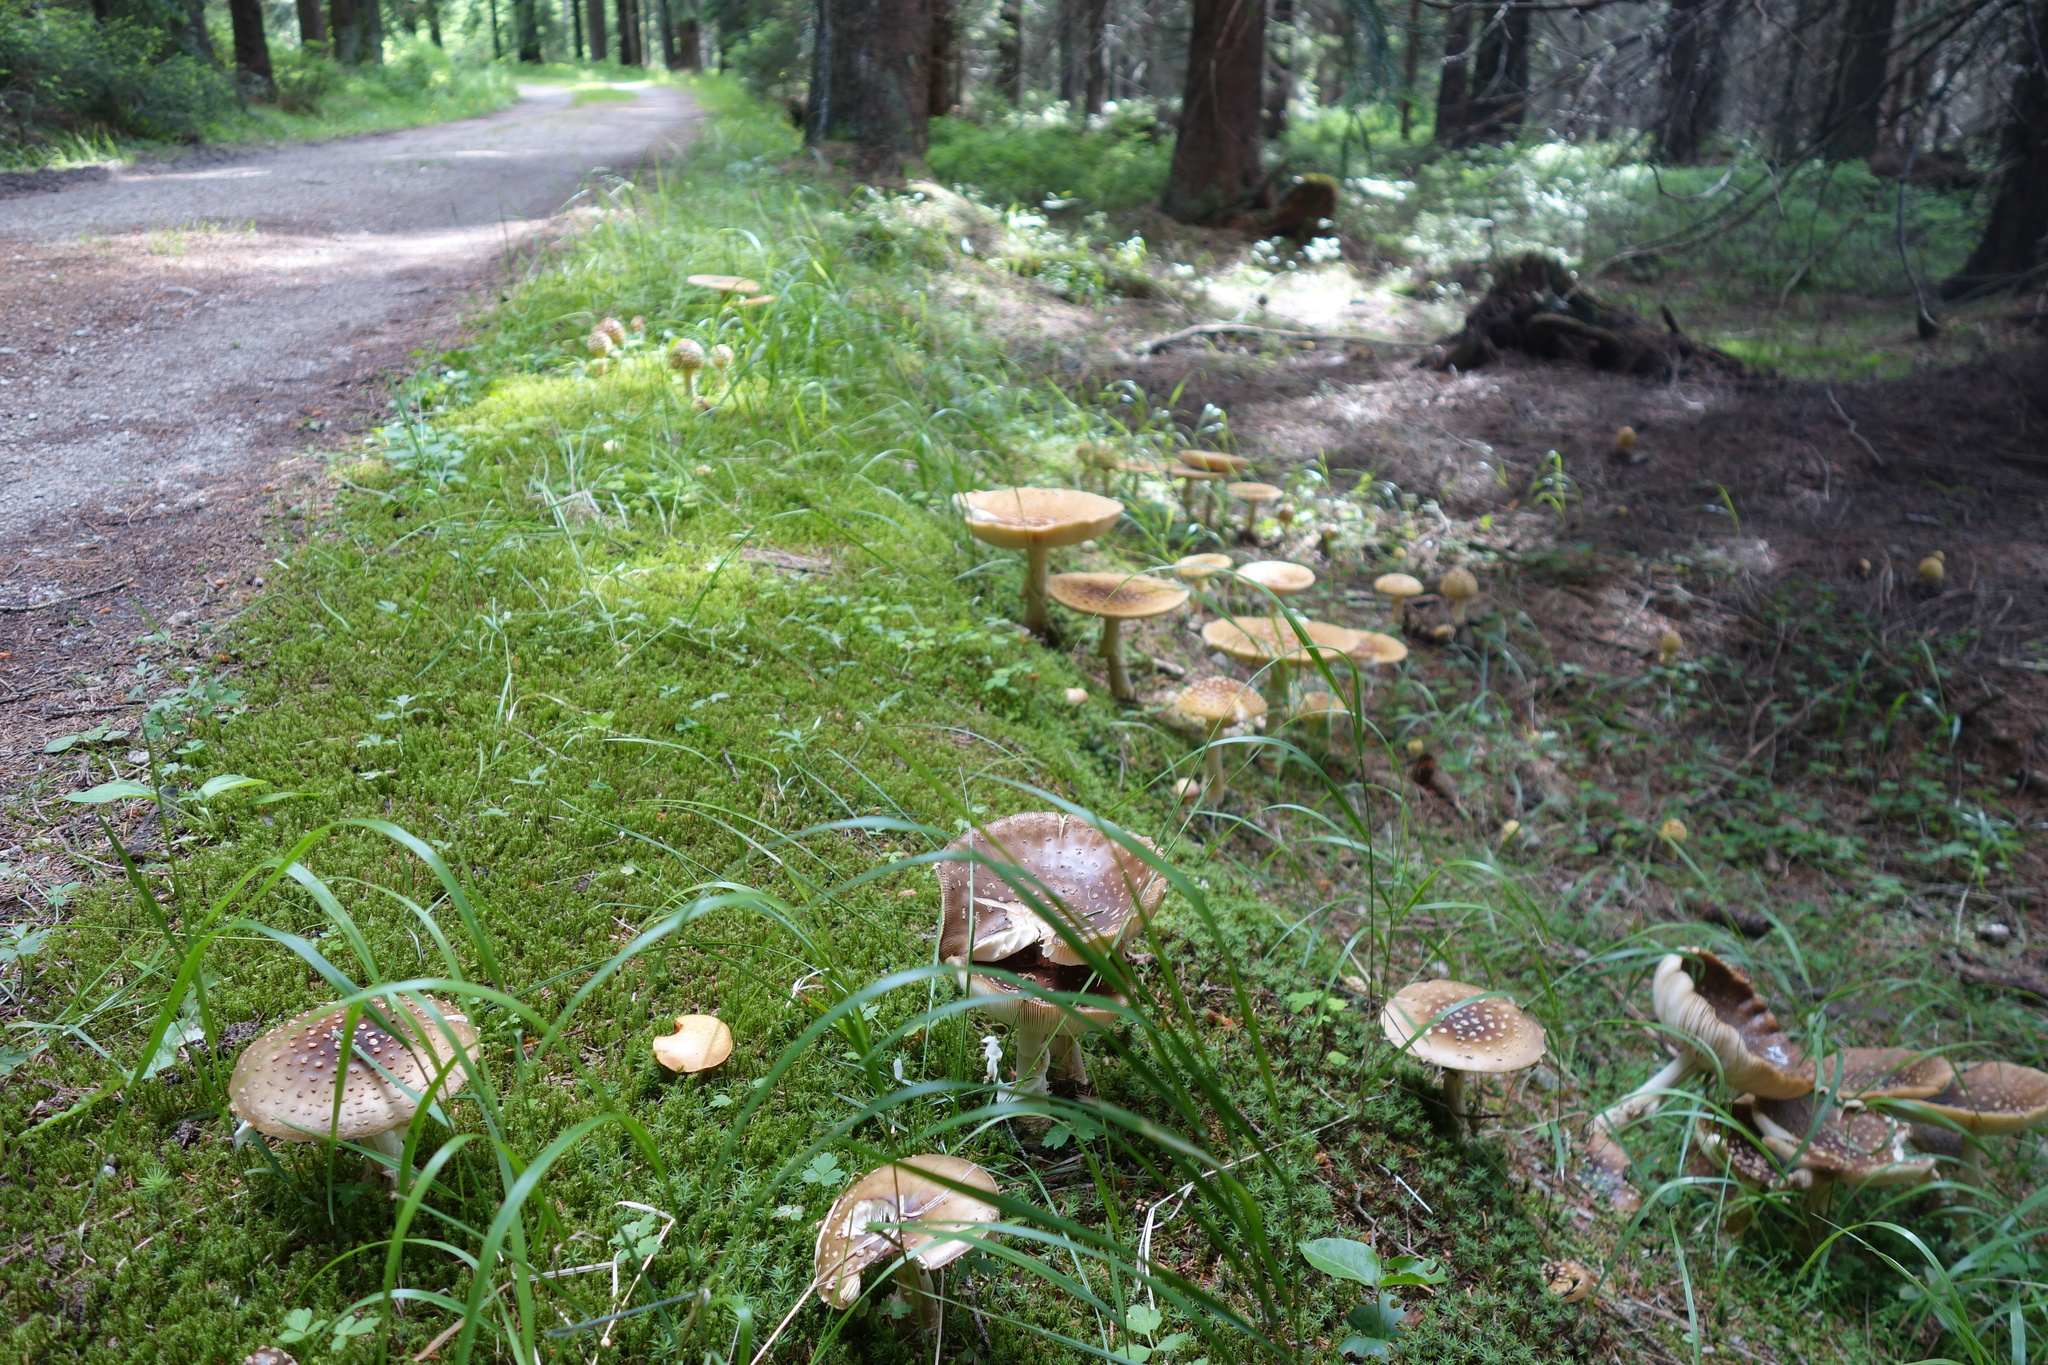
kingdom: Fungi
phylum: Basidiomycota
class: Agaricomycetes
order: Agaricales
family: Amanitaceae
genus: Amanita
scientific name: Amanita regalis
